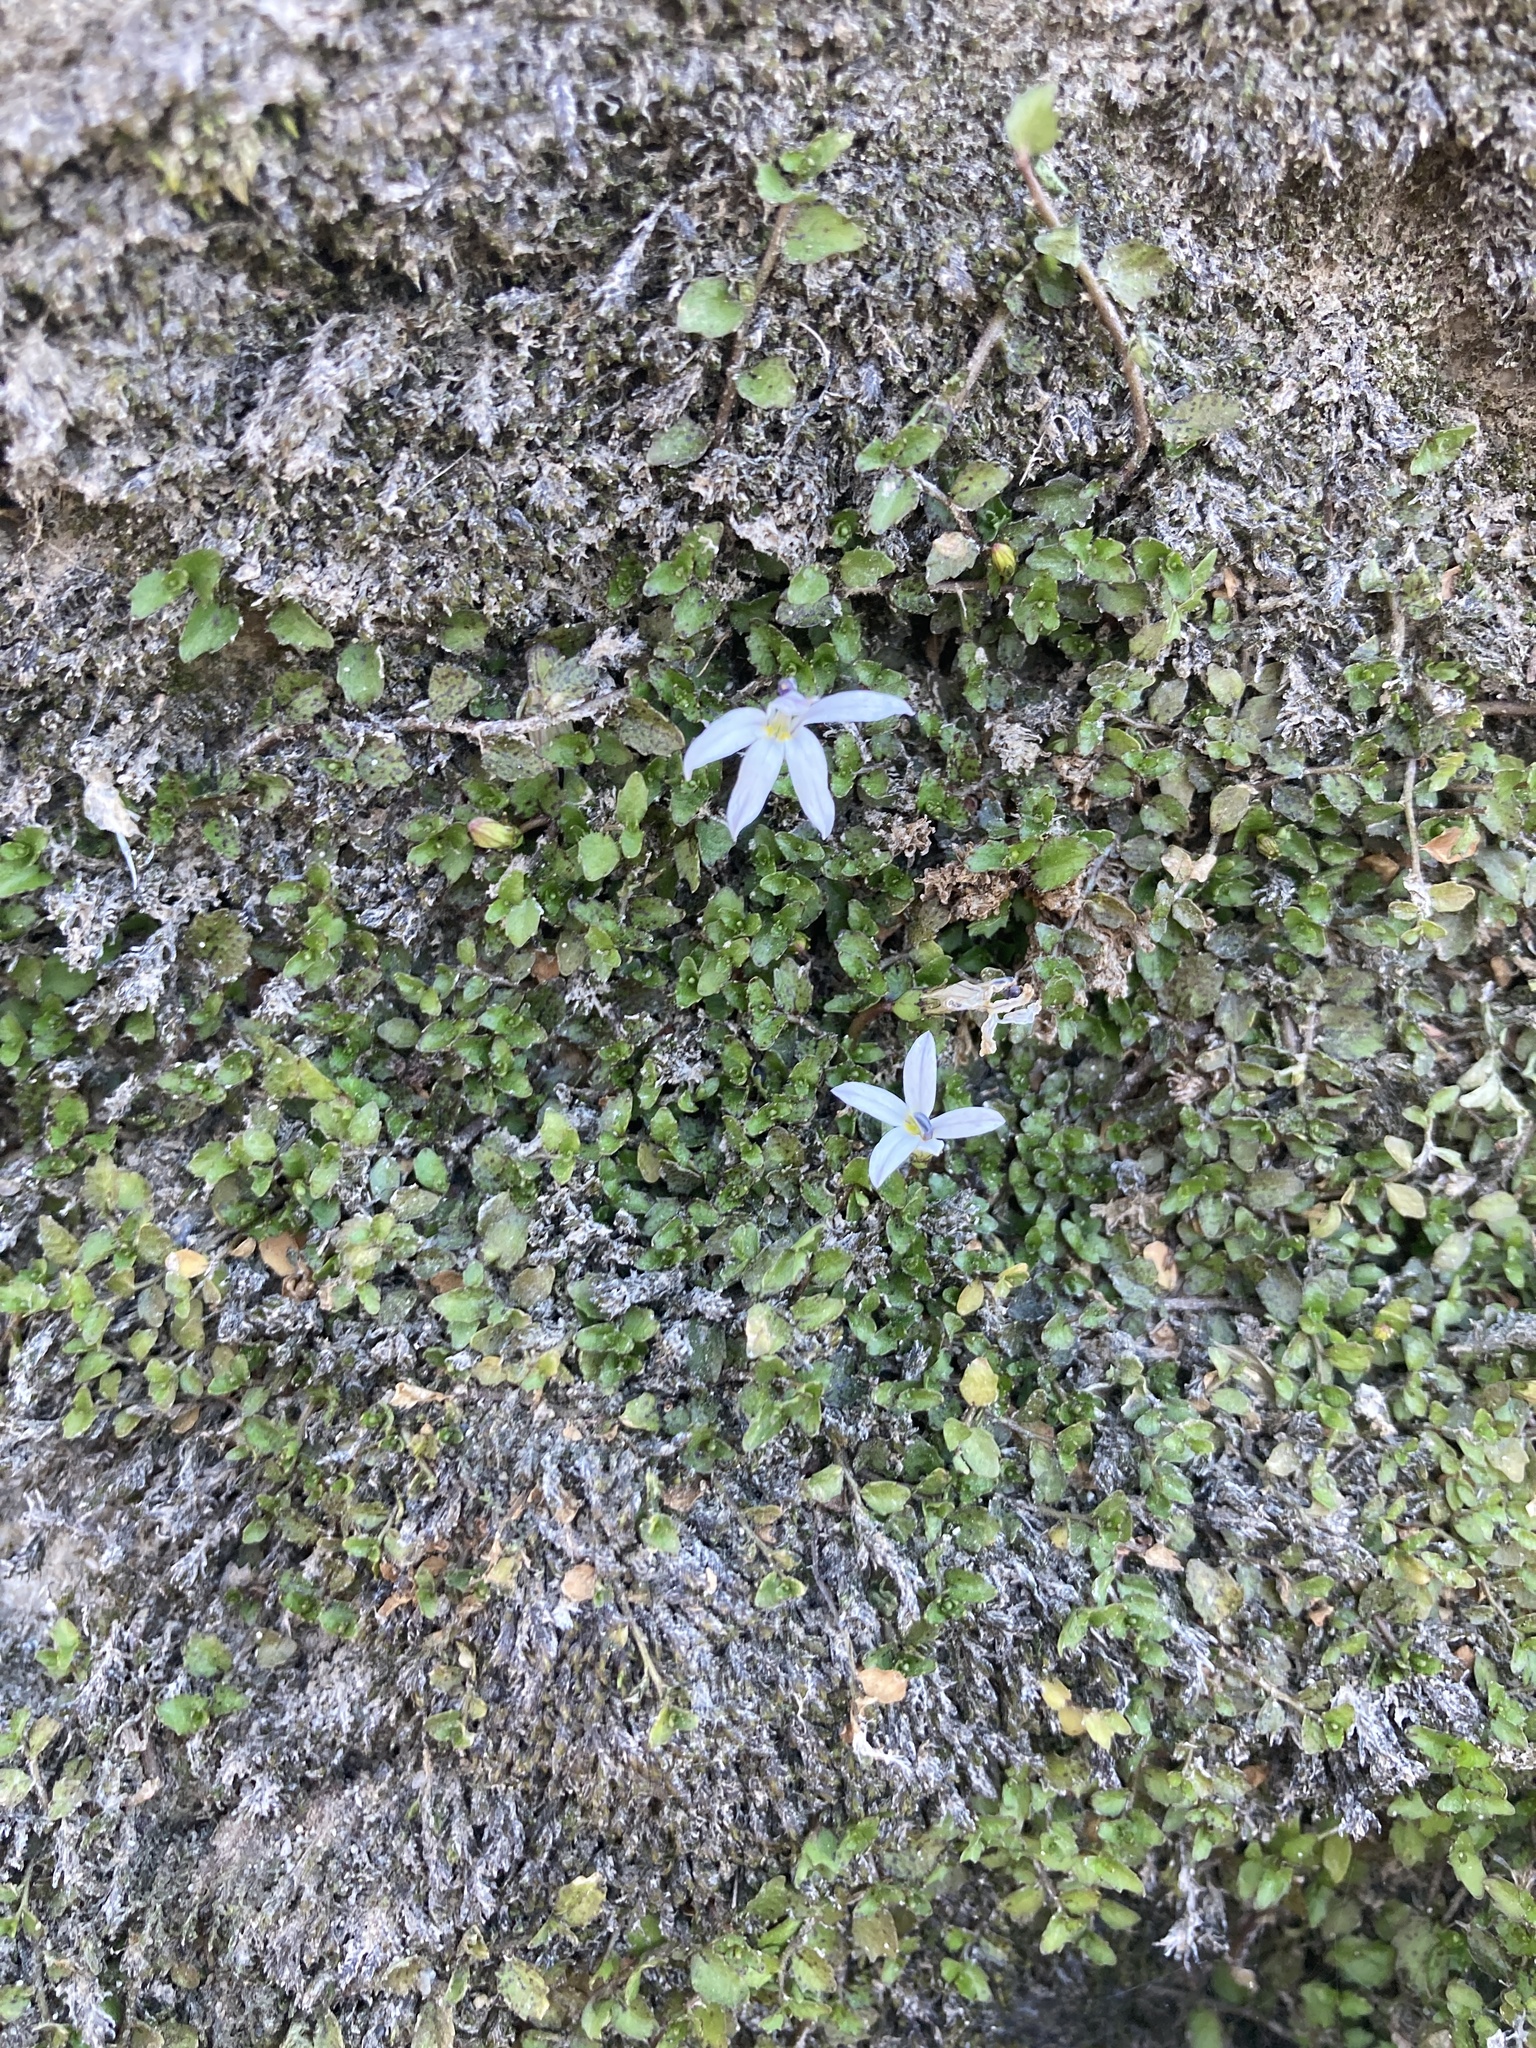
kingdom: Plantae
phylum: Tracheophyta
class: Magnoliopsida
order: Asterales
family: Campanulaceae
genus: Lobelia
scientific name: Lobelia angulata
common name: Lawn lobelia
